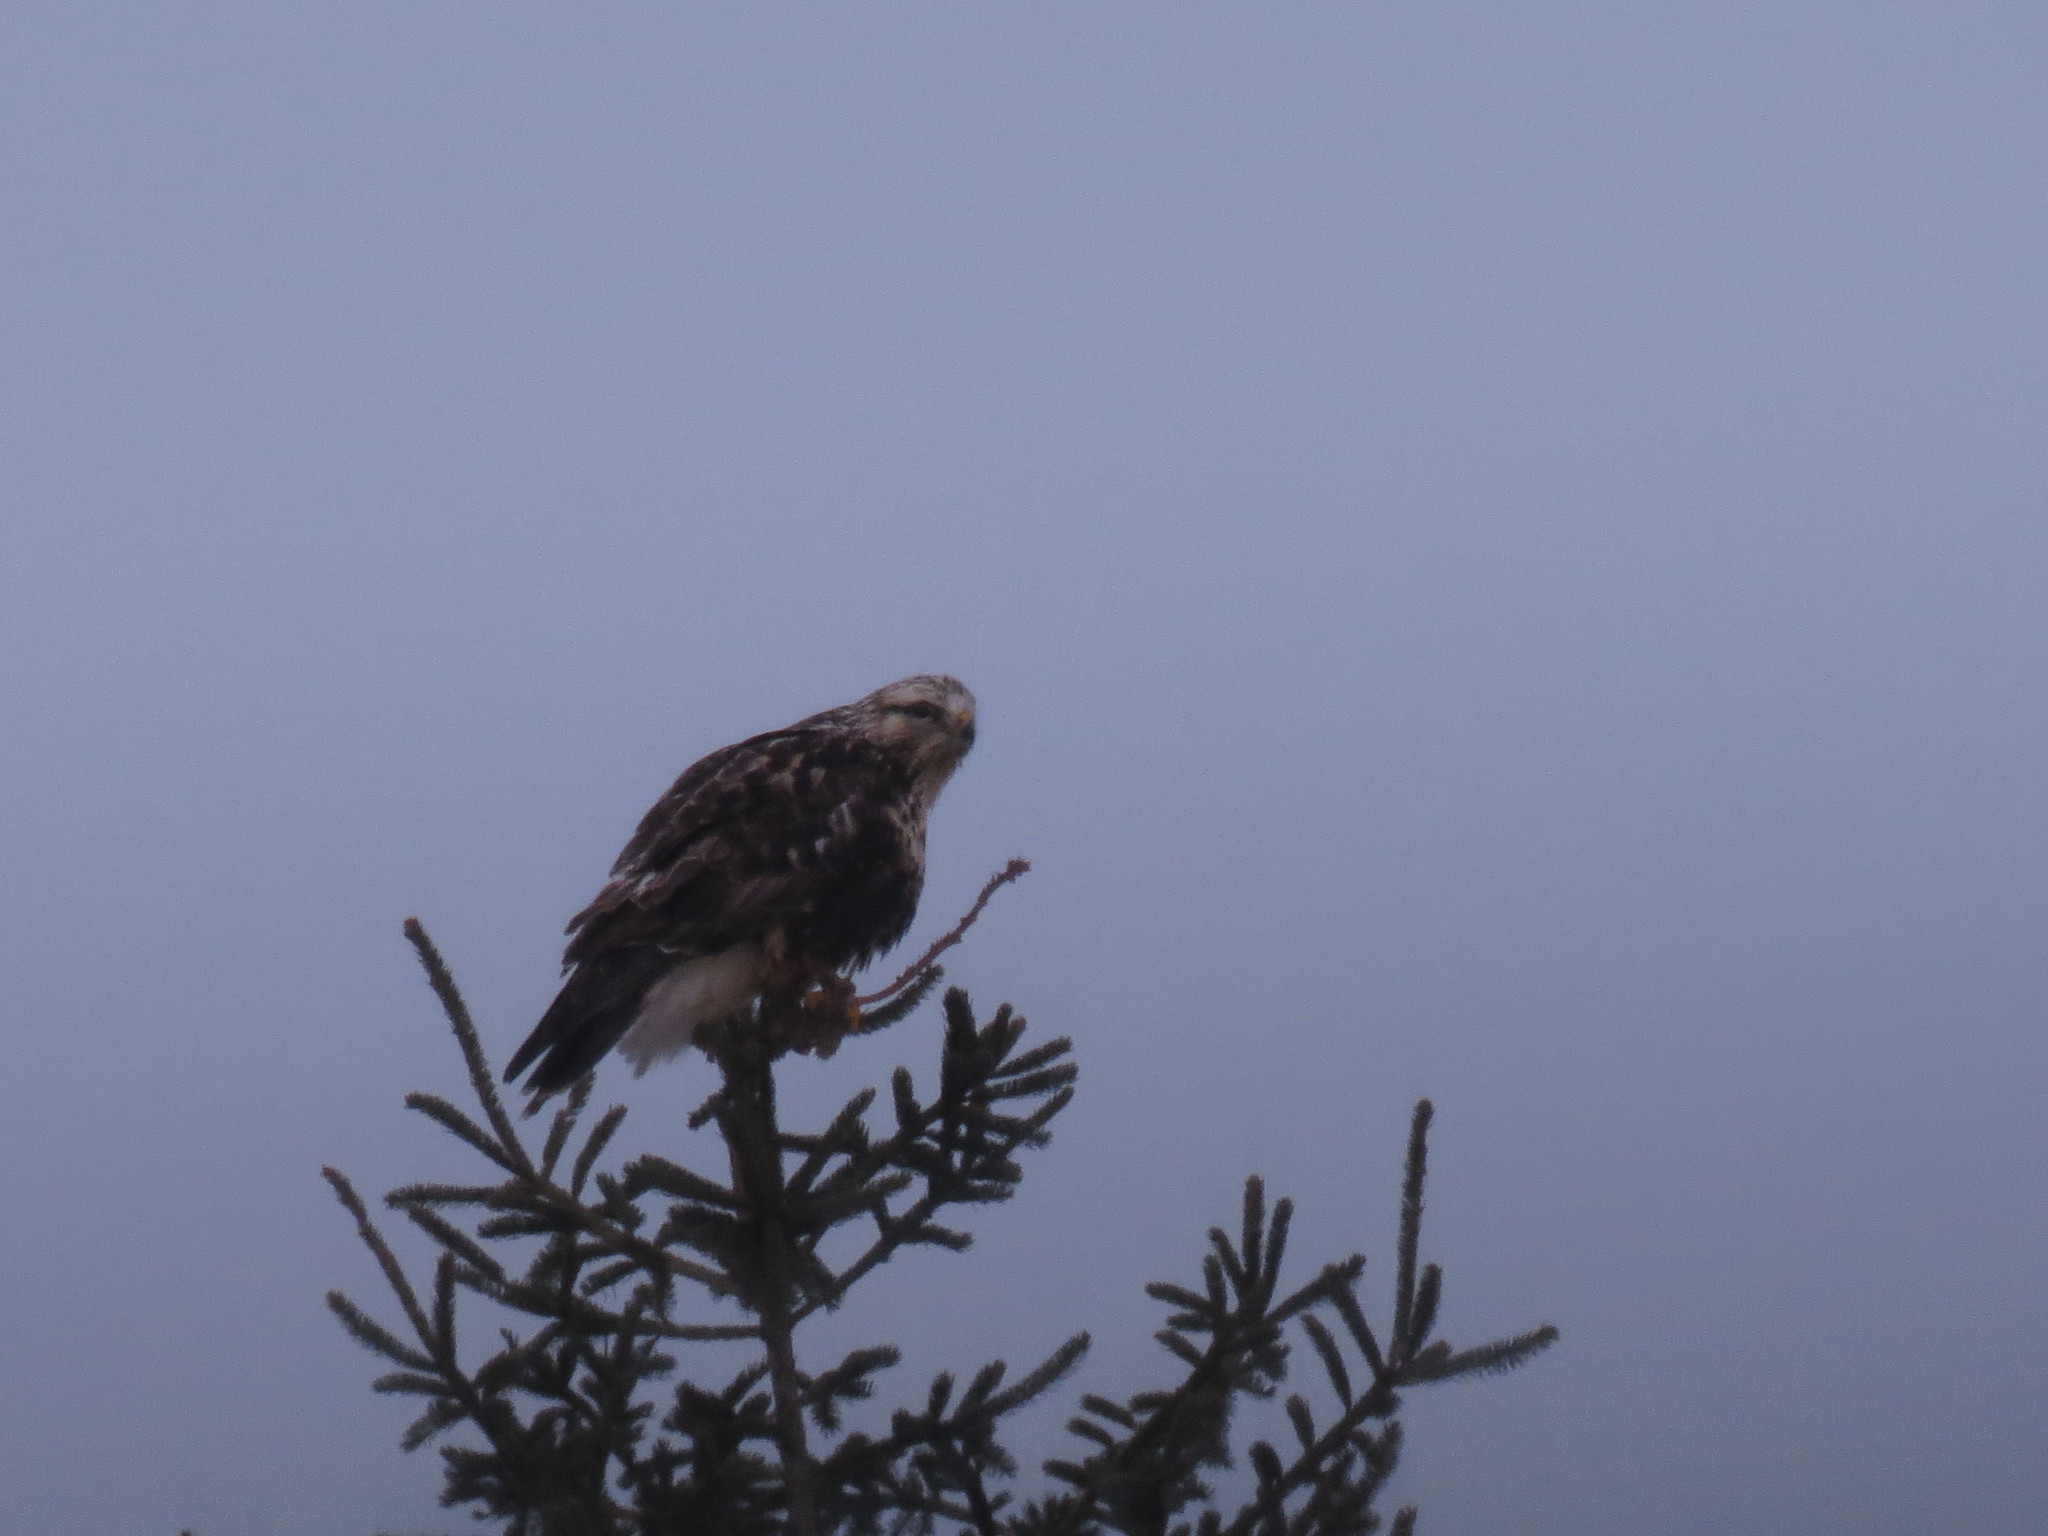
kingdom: Animalia
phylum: Chordata
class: Aves
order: Accipitriformes
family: Accipitridae
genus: Buteo
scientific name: Buteo lagopus
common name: Rough-legged buzzard
